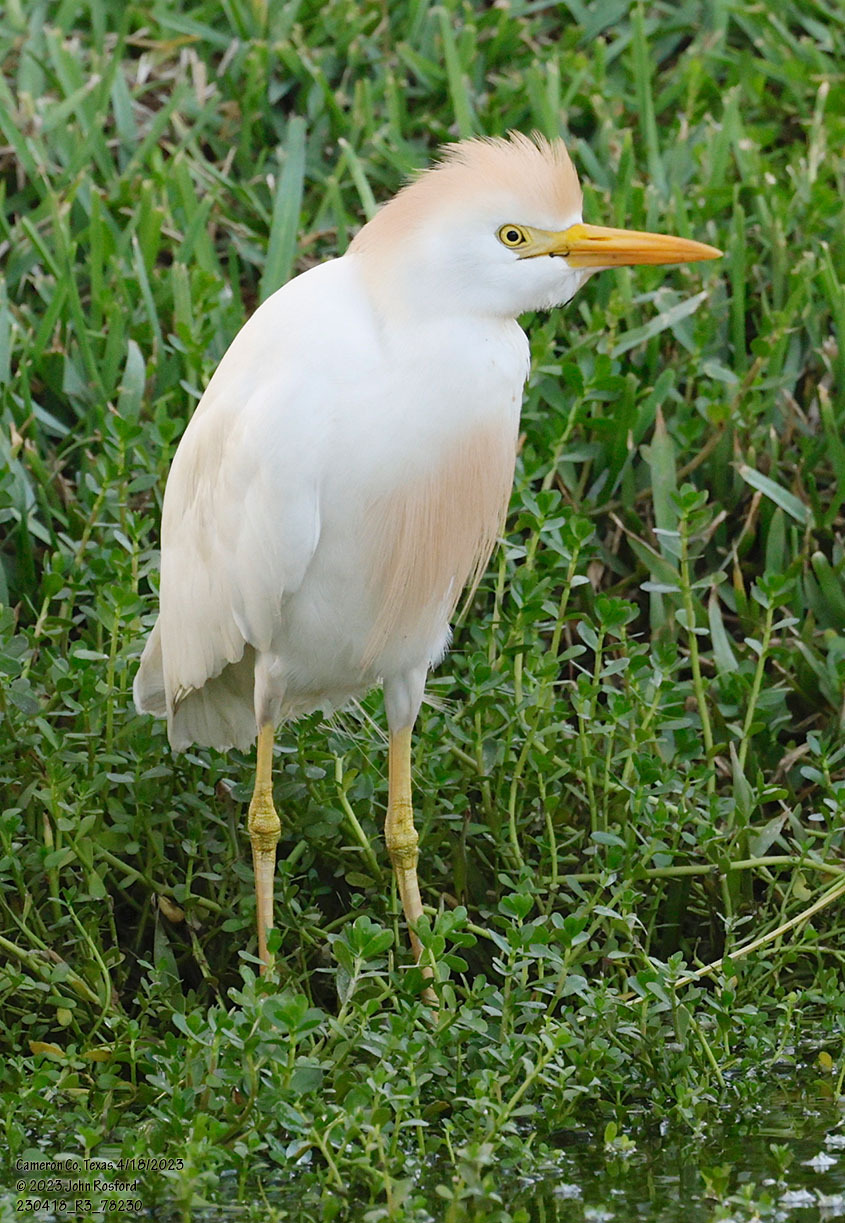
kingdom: Animalia
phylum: Chordata
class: Aves
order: Pelecaniformes
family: Ardeidae
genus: Bubulcus
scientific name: Bubulcus ibis
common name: Cattle egret
